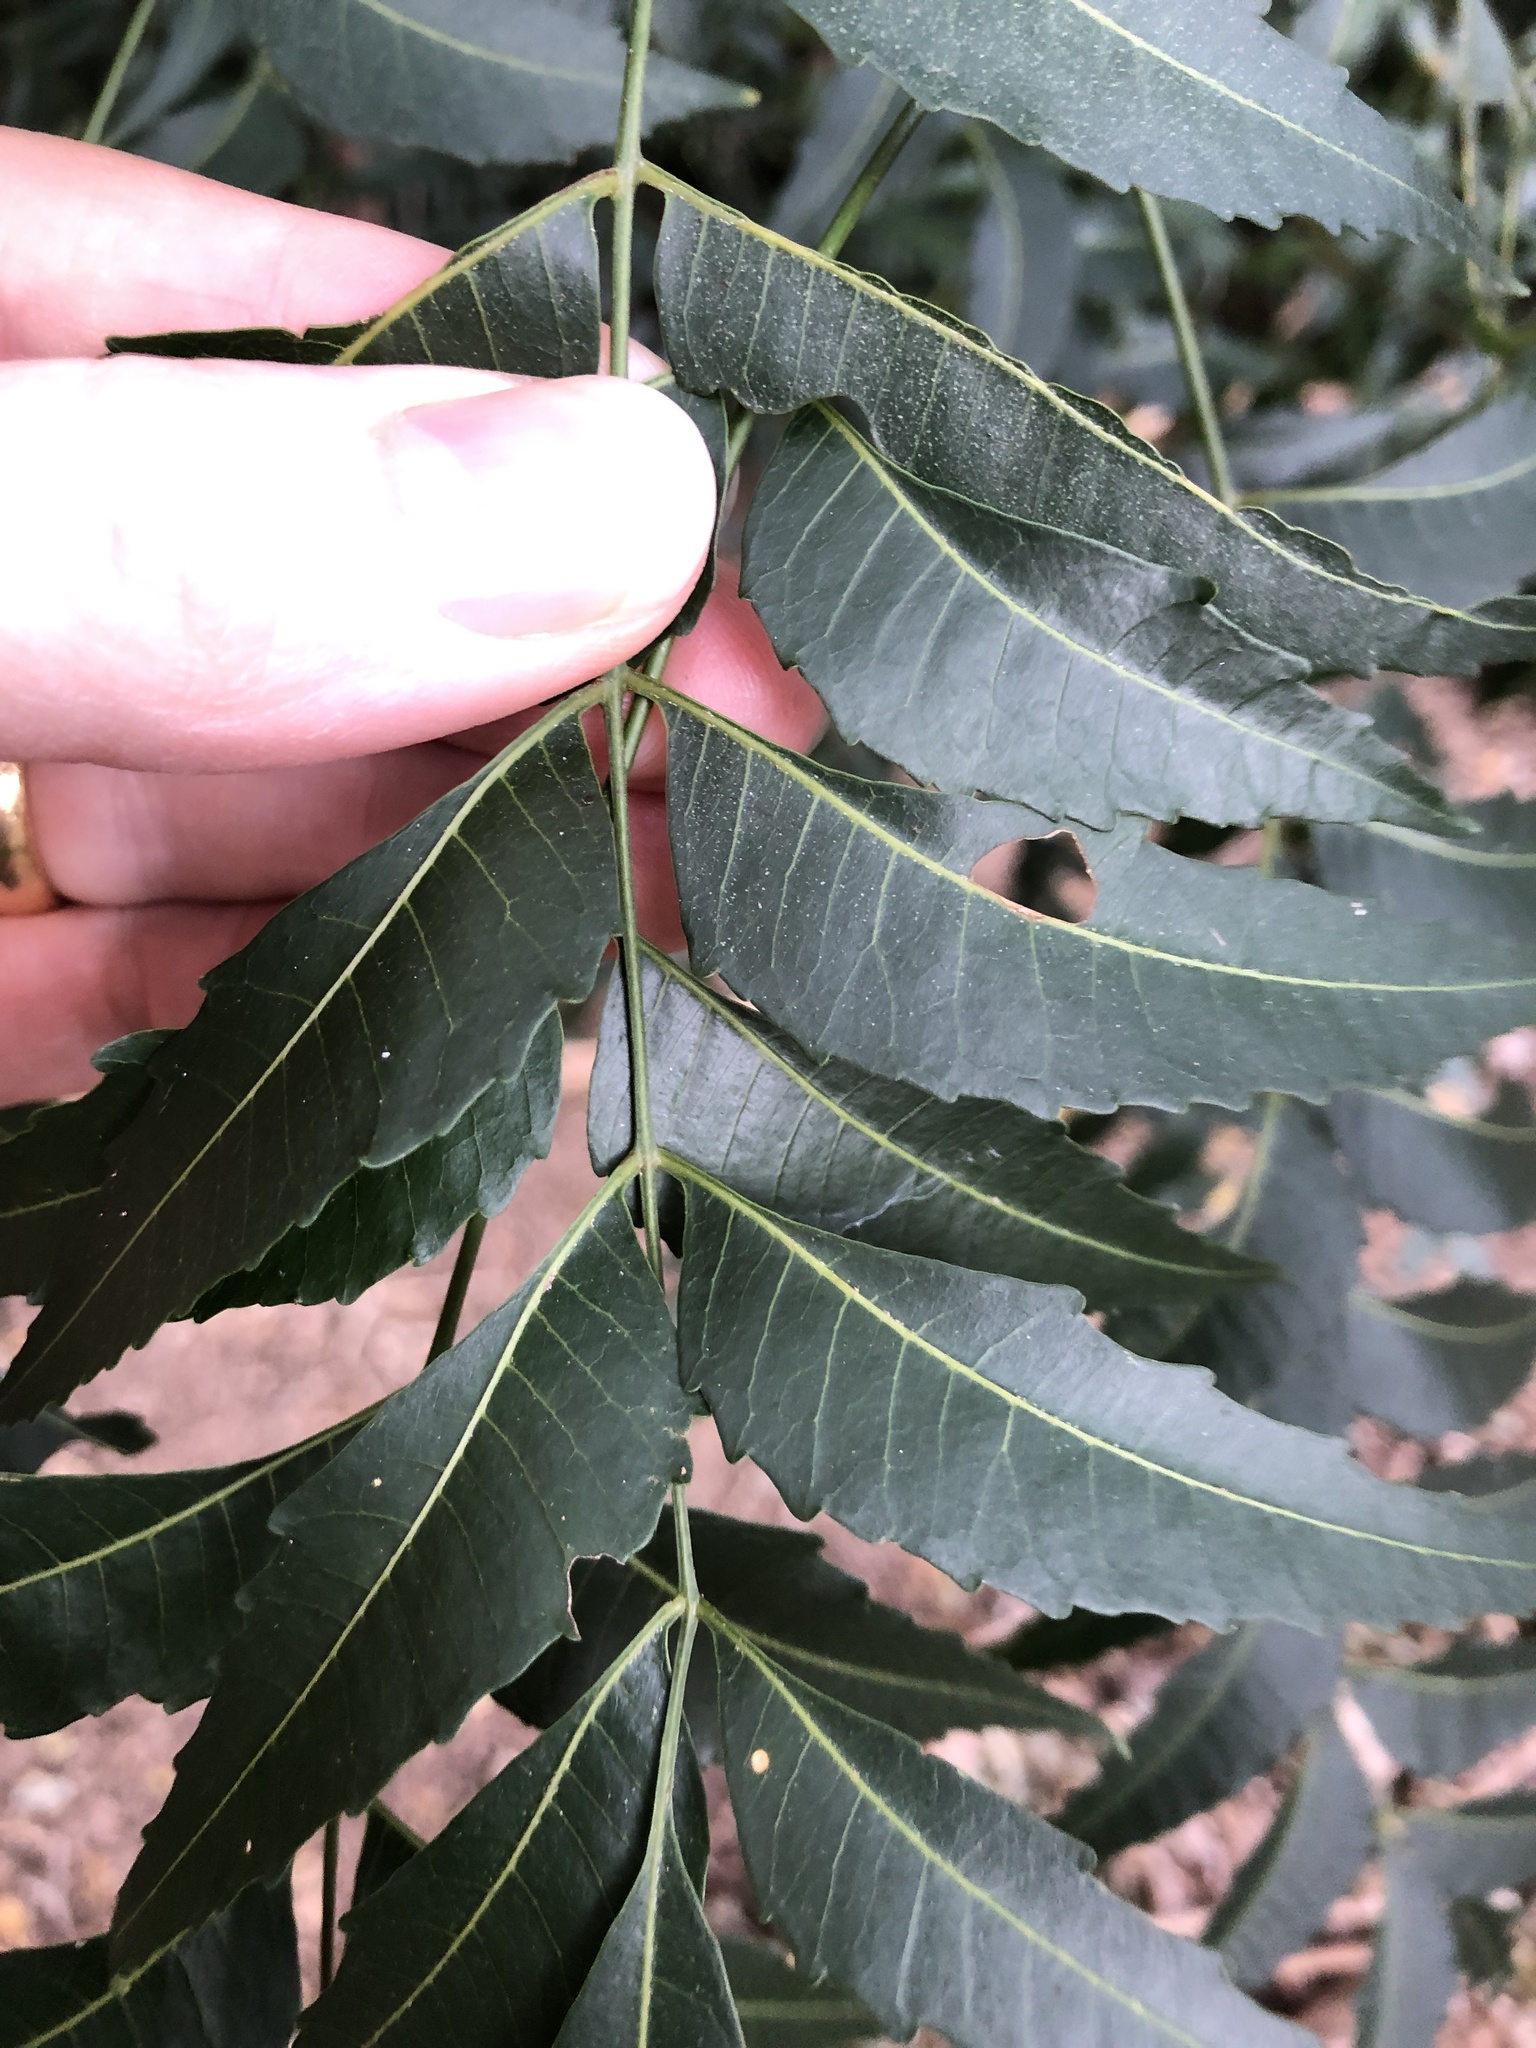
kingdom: Plantae
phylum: Tracheophyta
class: Magnoliopsida
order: Sapindales
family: Meliaceae
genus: Azadirachta
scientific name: Azadirachta indica
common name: Neem
